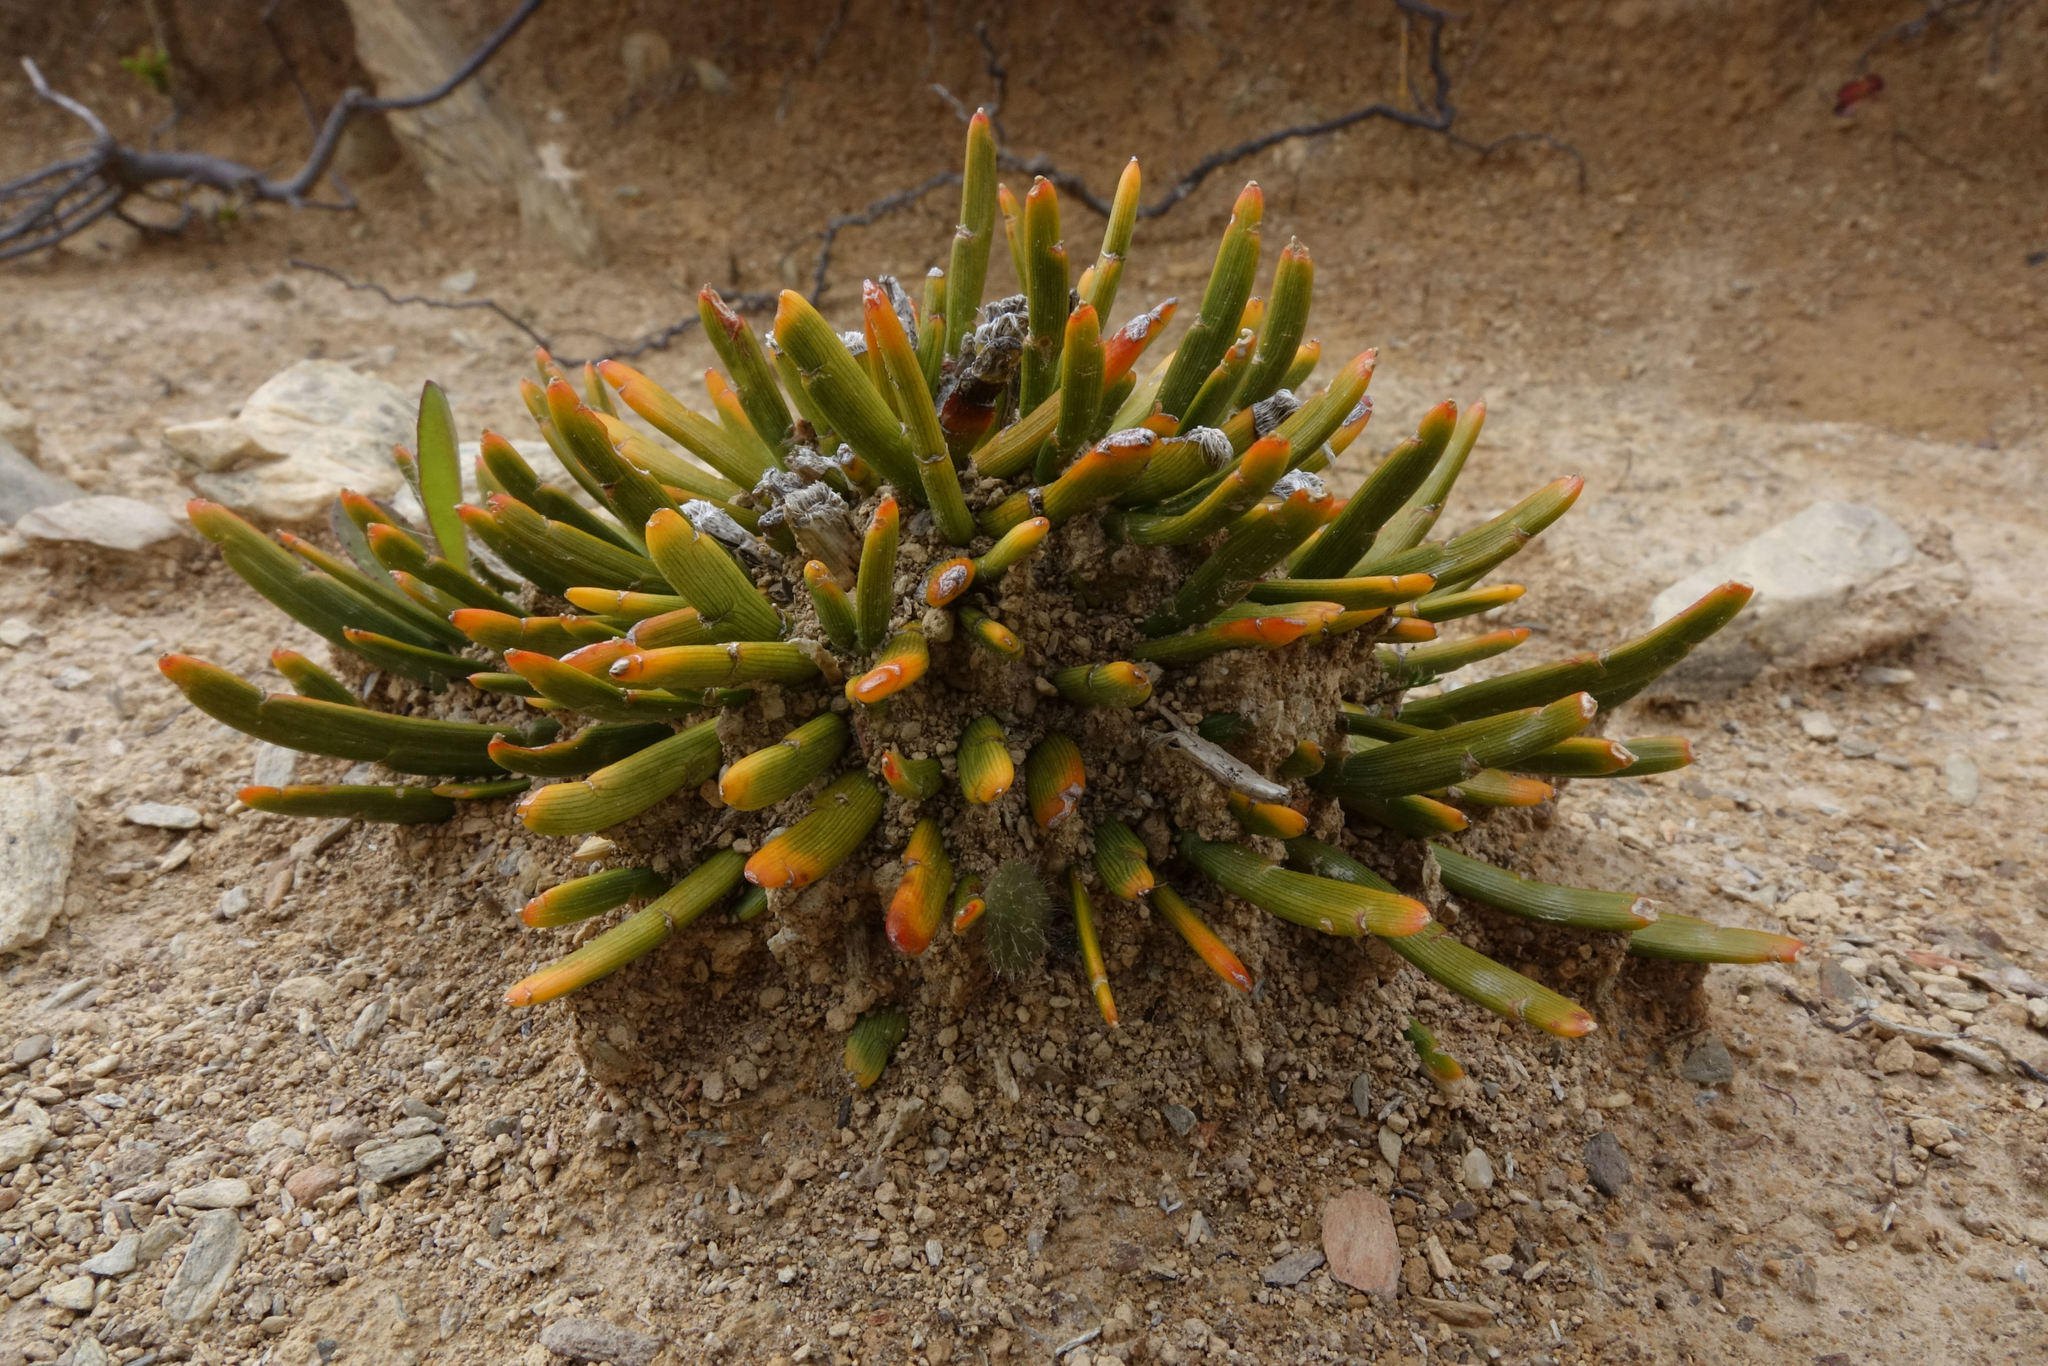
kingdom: Plantae
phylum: Tracheophyta
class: Magnoliopsida
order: Fabales
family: Fabaceae
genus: Carmichaelia
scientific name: Carmichaelia vexillata
